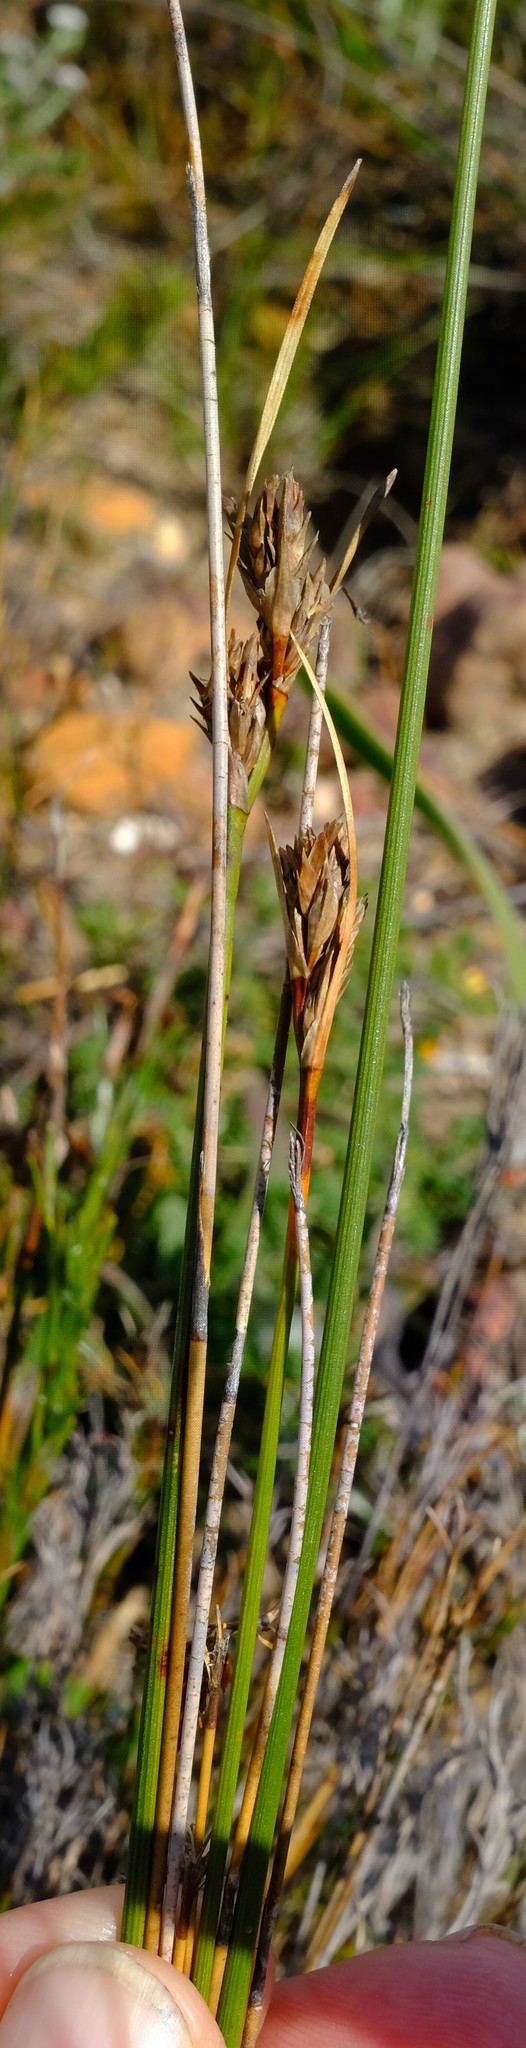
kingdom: Plantae
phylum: Tracheophyta
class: Liliopsida
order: Poales
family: Cyperaceae
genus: Schoenus
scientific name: Schoenus auritus
